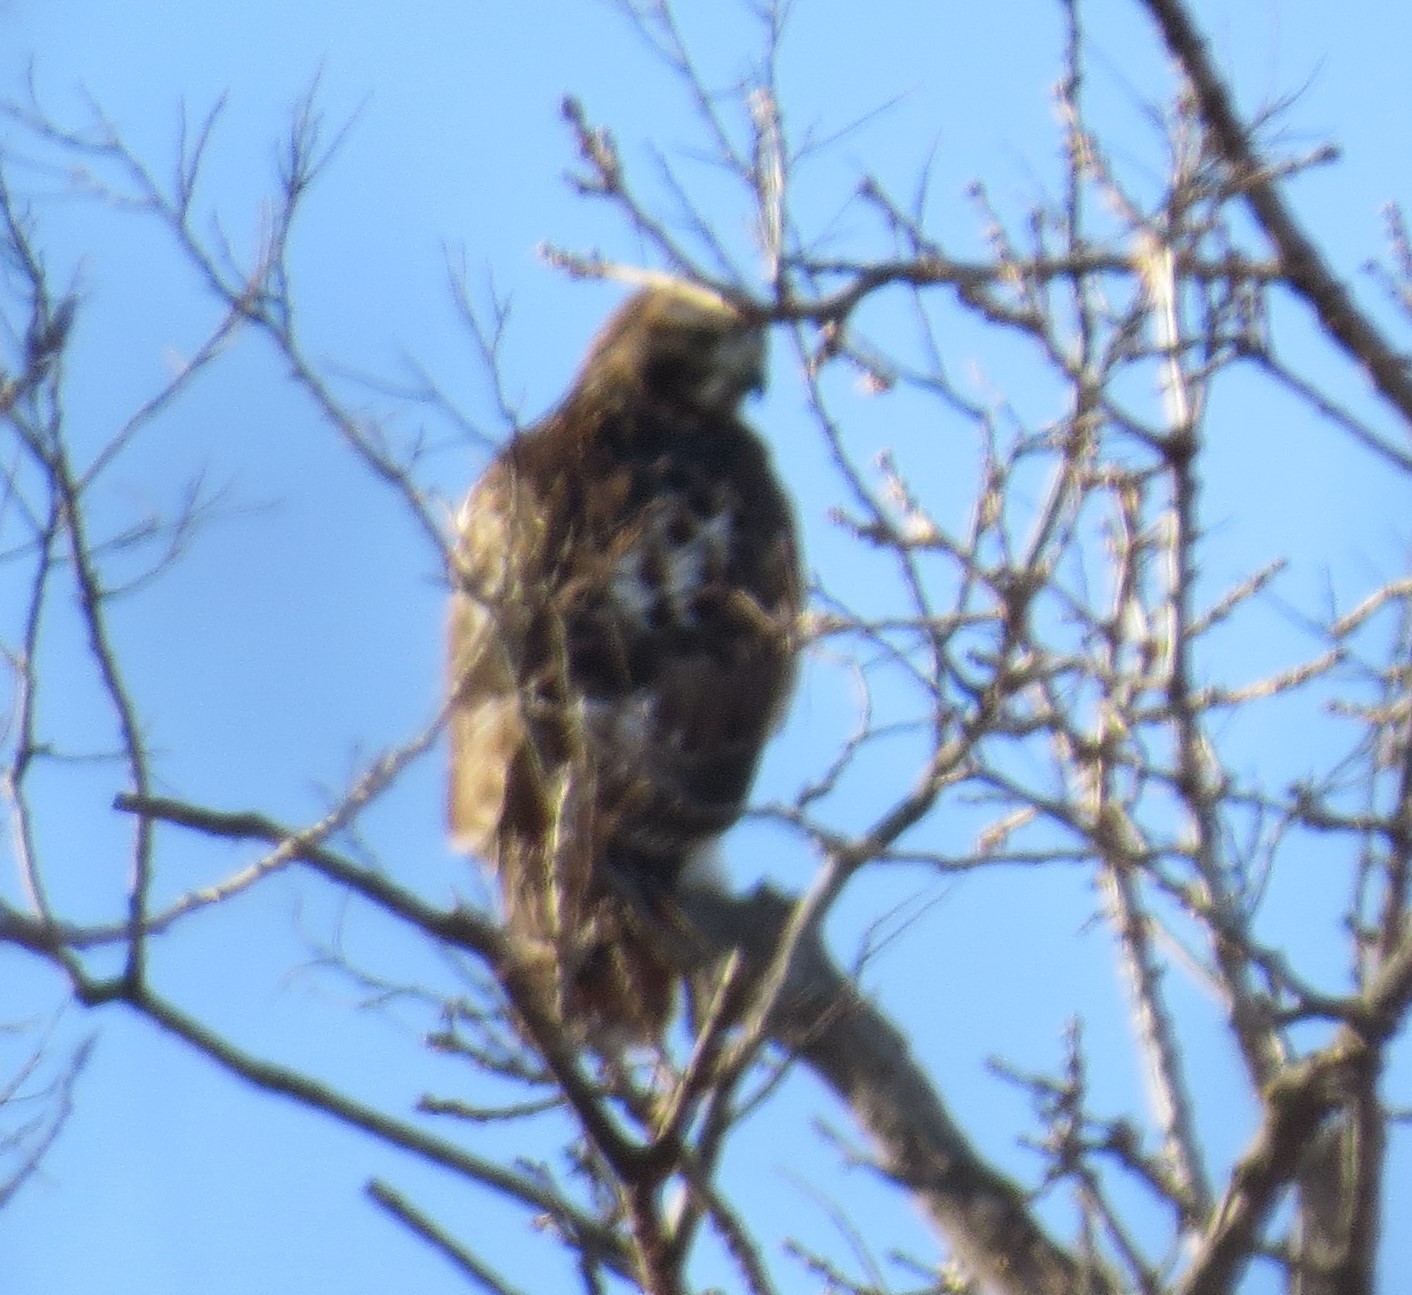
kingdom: Animalia
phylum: Chordata
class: Aves
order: Accipitriformes
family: Accipitridae
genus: Buteo
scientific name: Buteo jamaicensis
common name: Red-tailed hawk
